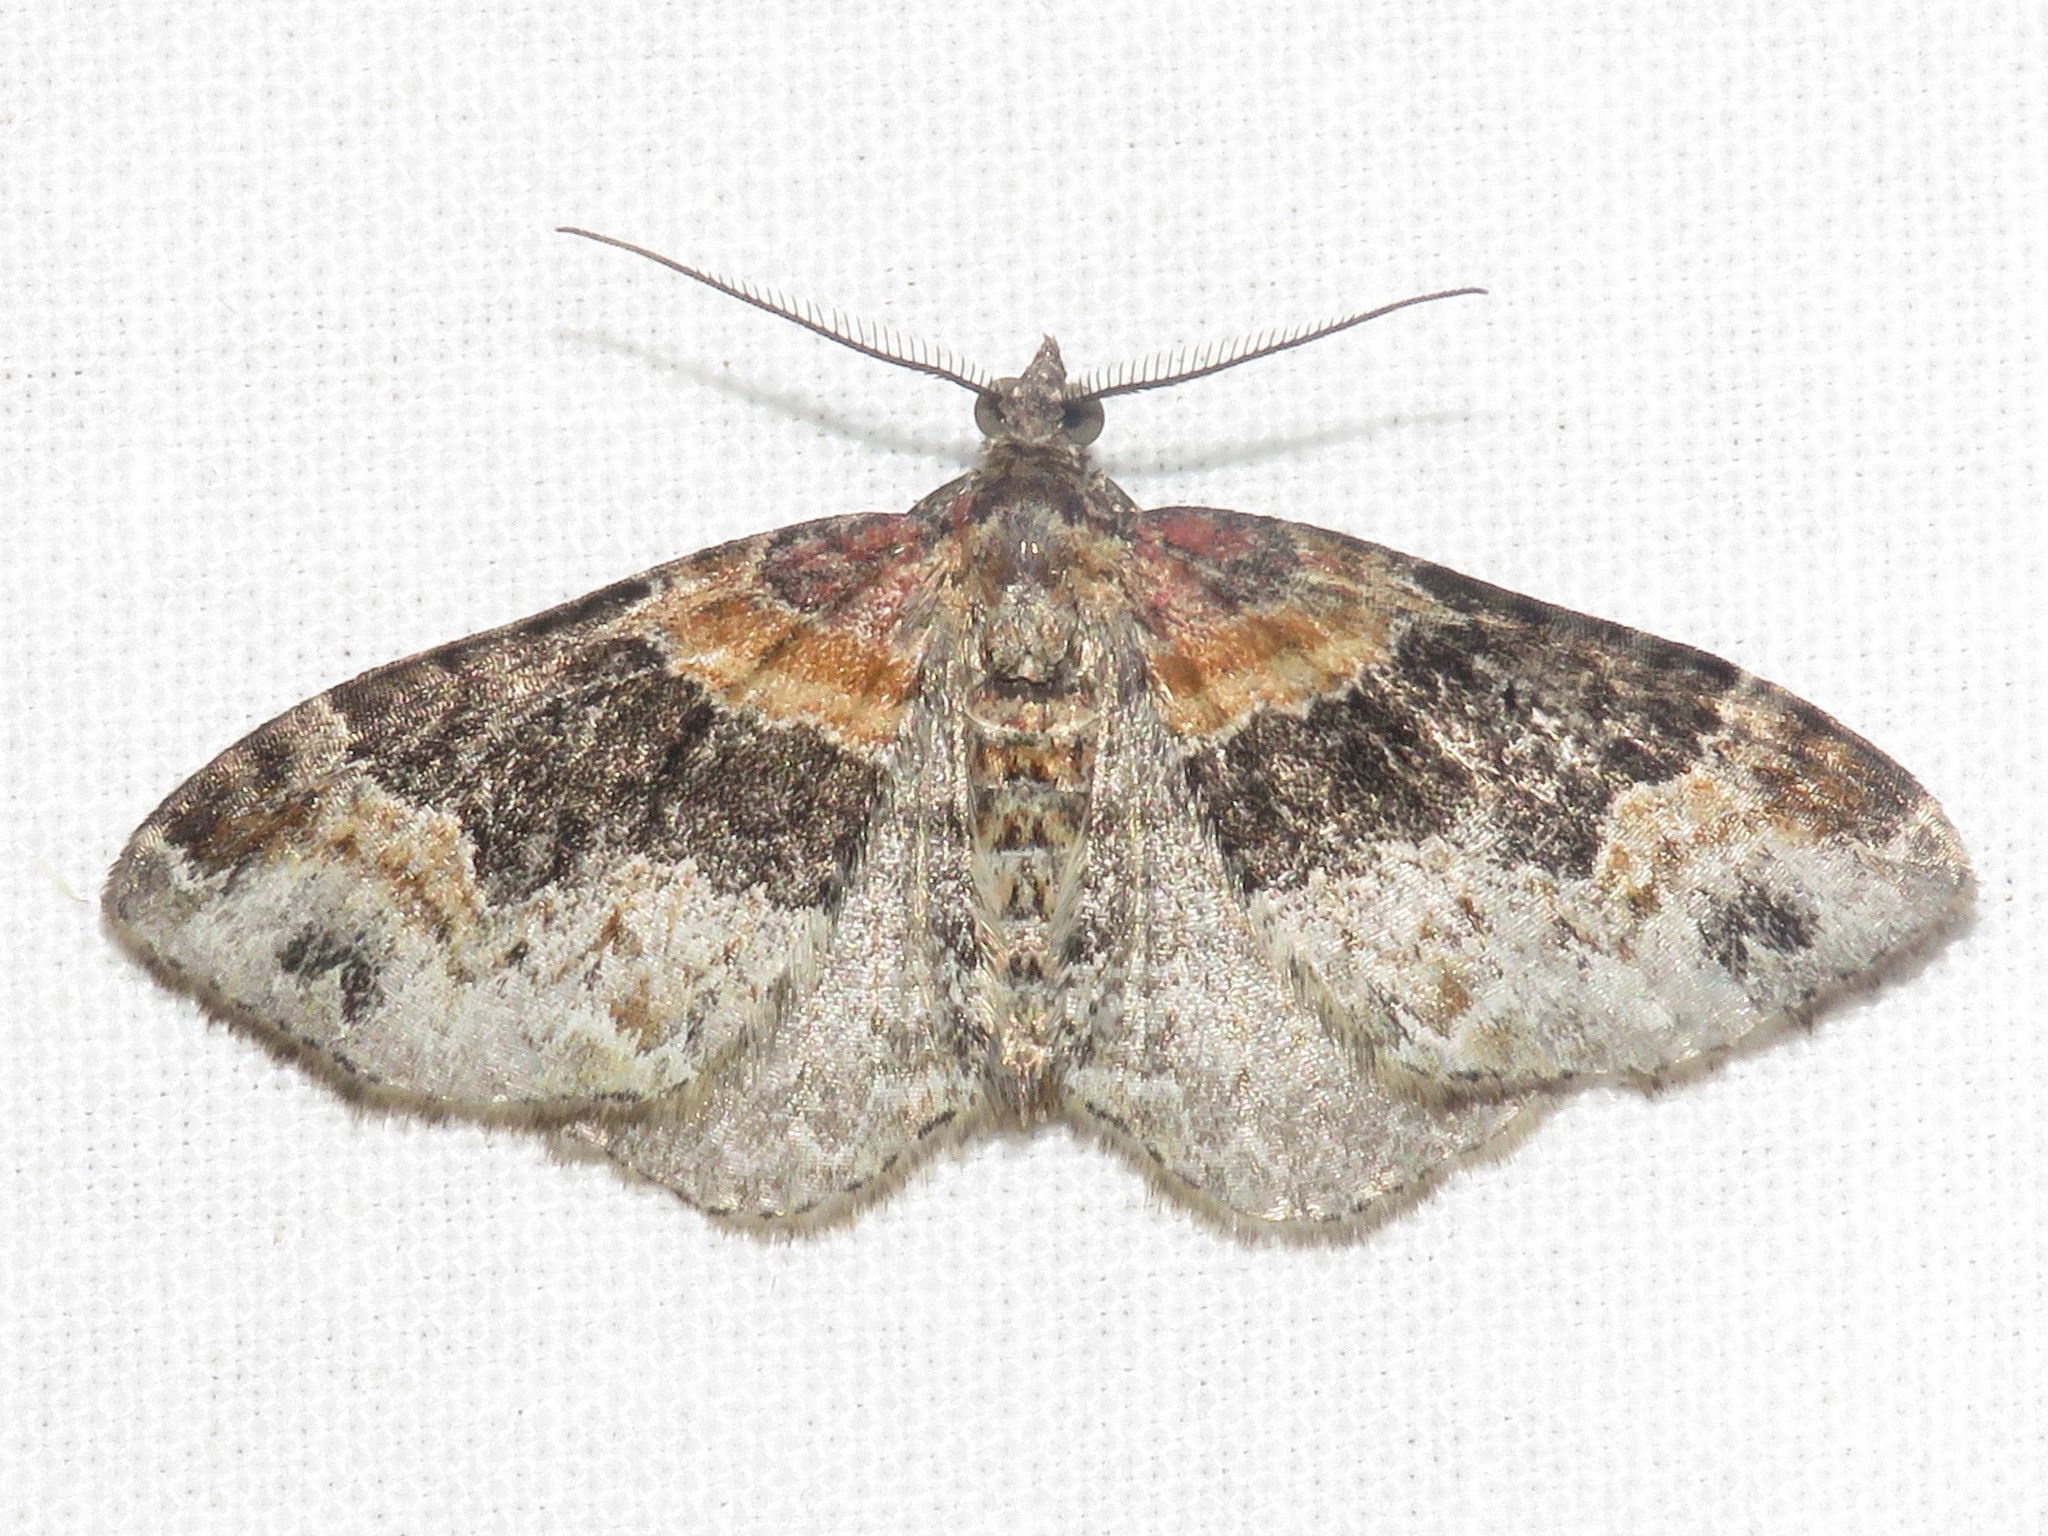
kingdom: Animalia
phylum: Arthropoda
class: Insecta
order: Lepidoptera
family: Geometridae
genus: Xanthorhoe
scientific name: Xanthorhoe ferrugata
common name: Dark-barred twin-spot carpet
